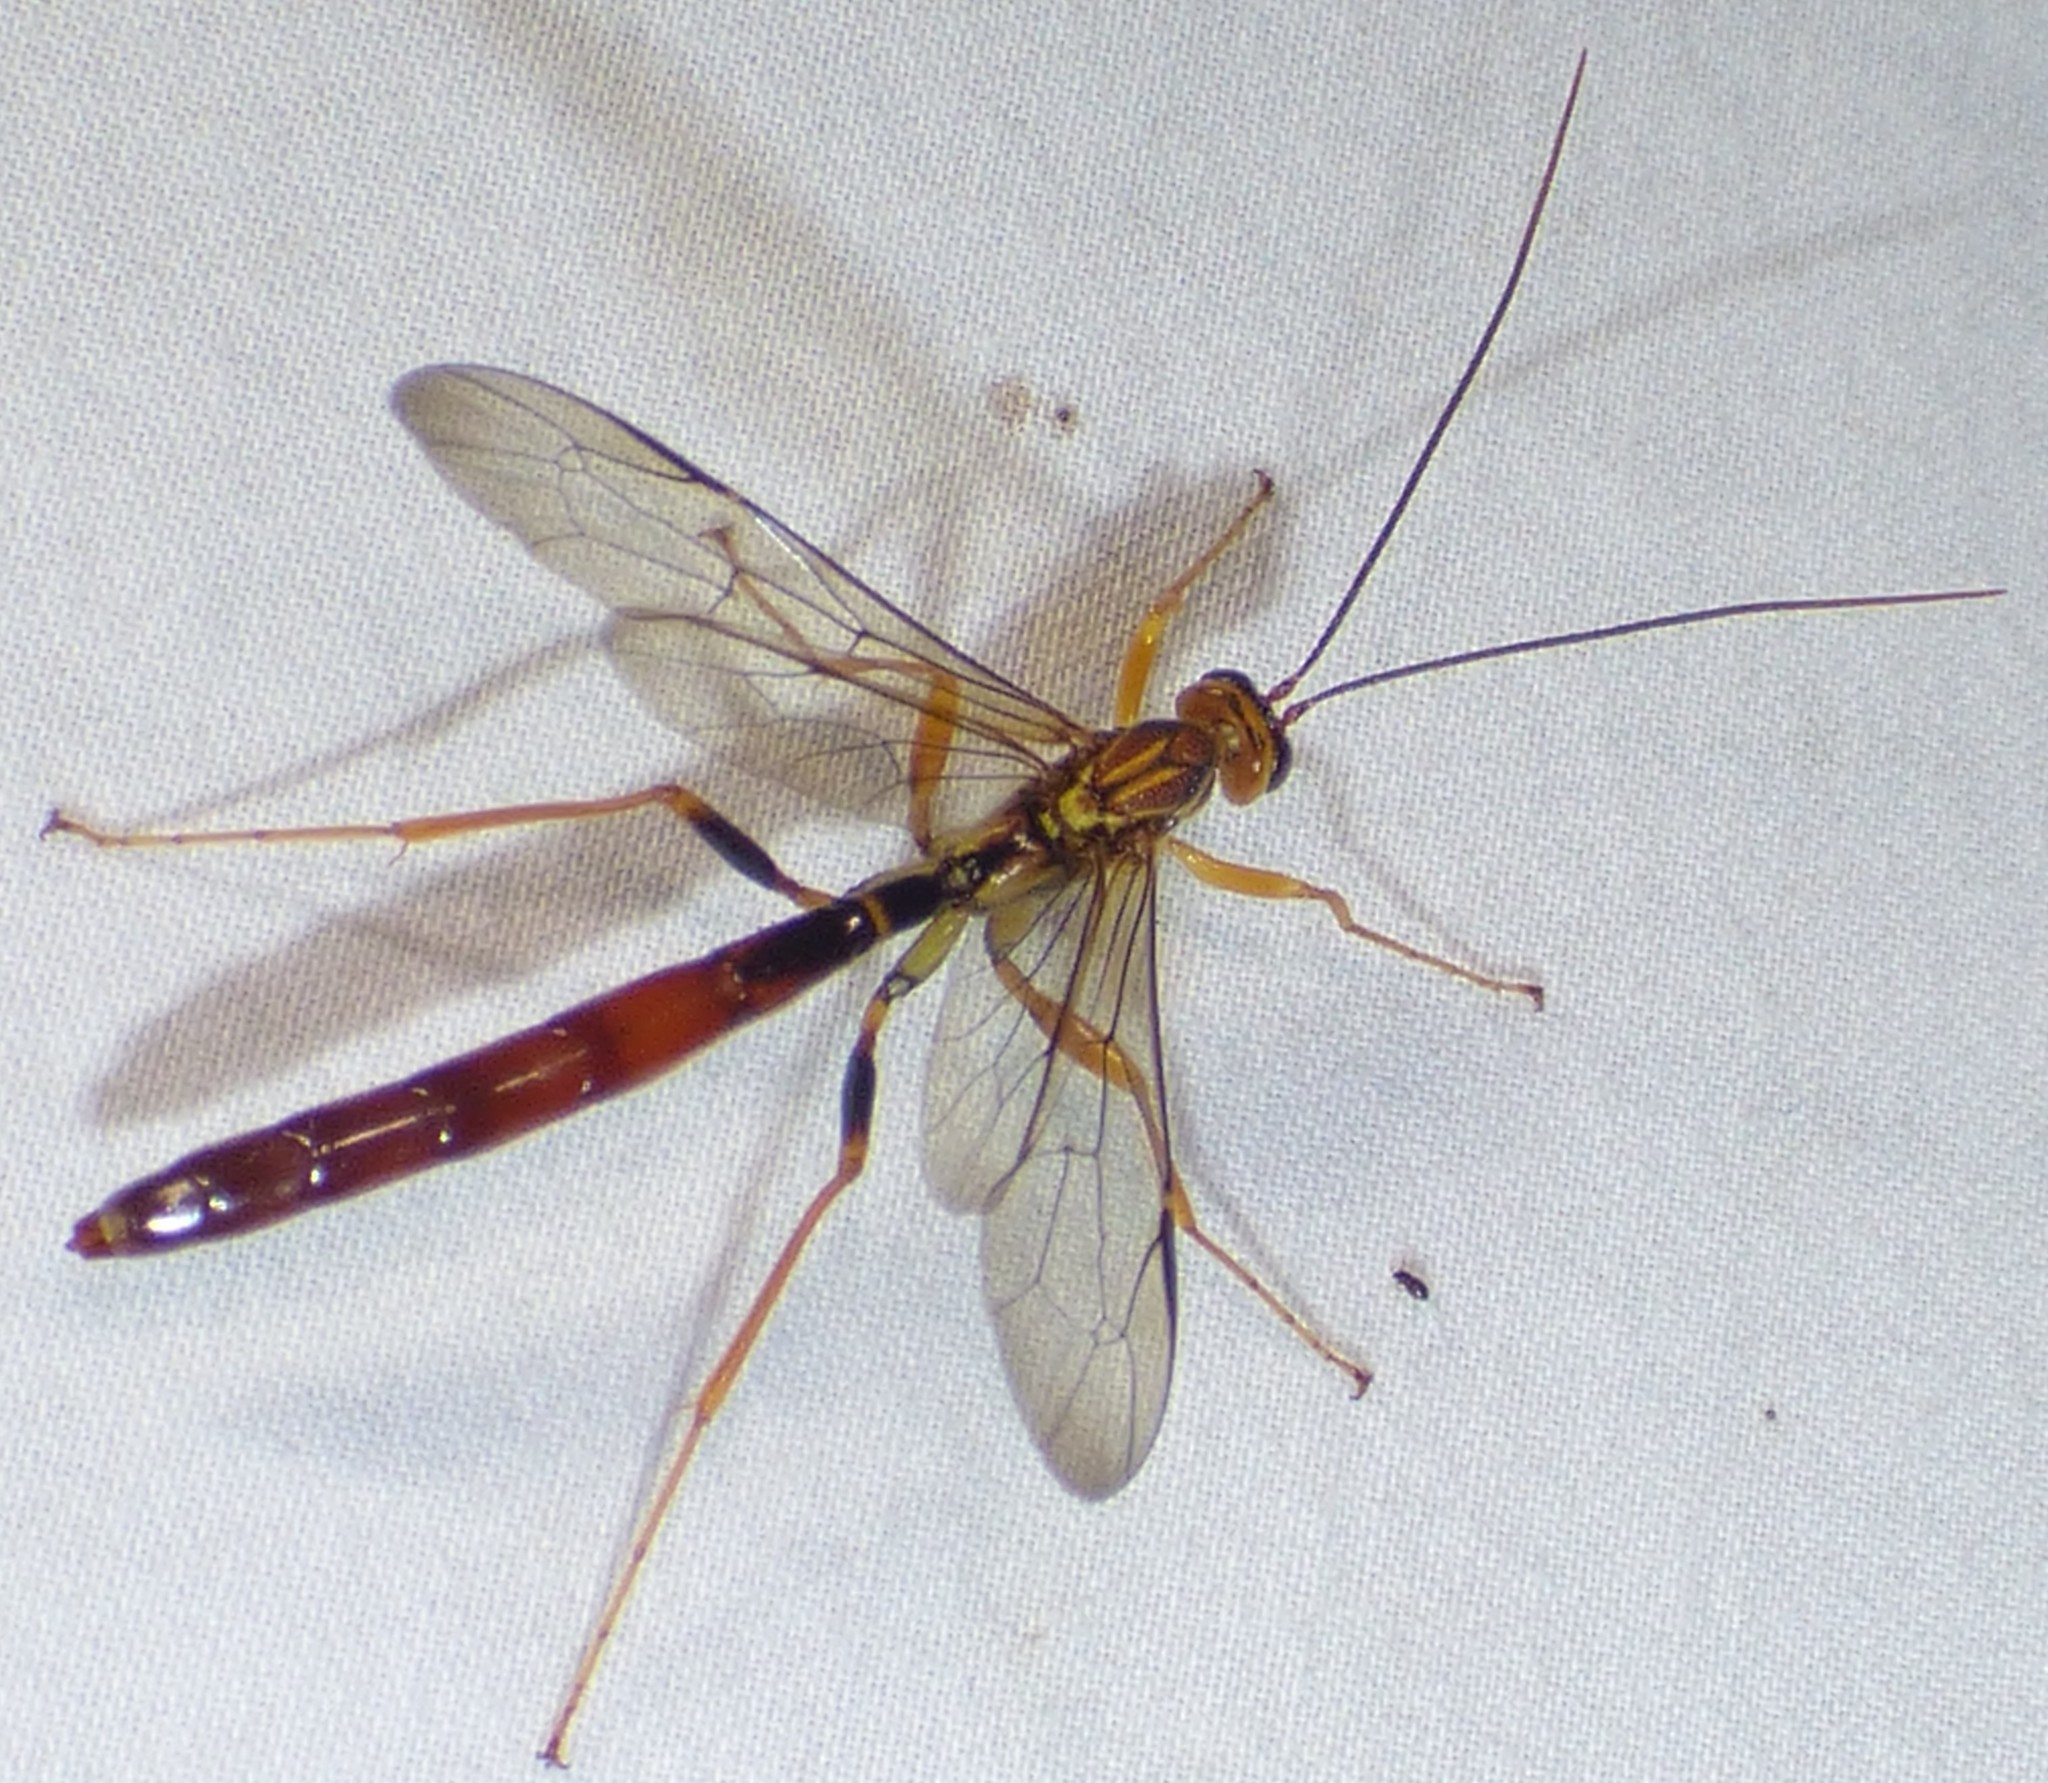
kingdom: Animalia
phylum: Arthropoda
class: Insecta
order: Hymenoptera
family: Ichneumonidae
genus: Megarhyssa
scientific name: Megarhyssa atrata
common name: Black giant ichneumonid wasp
